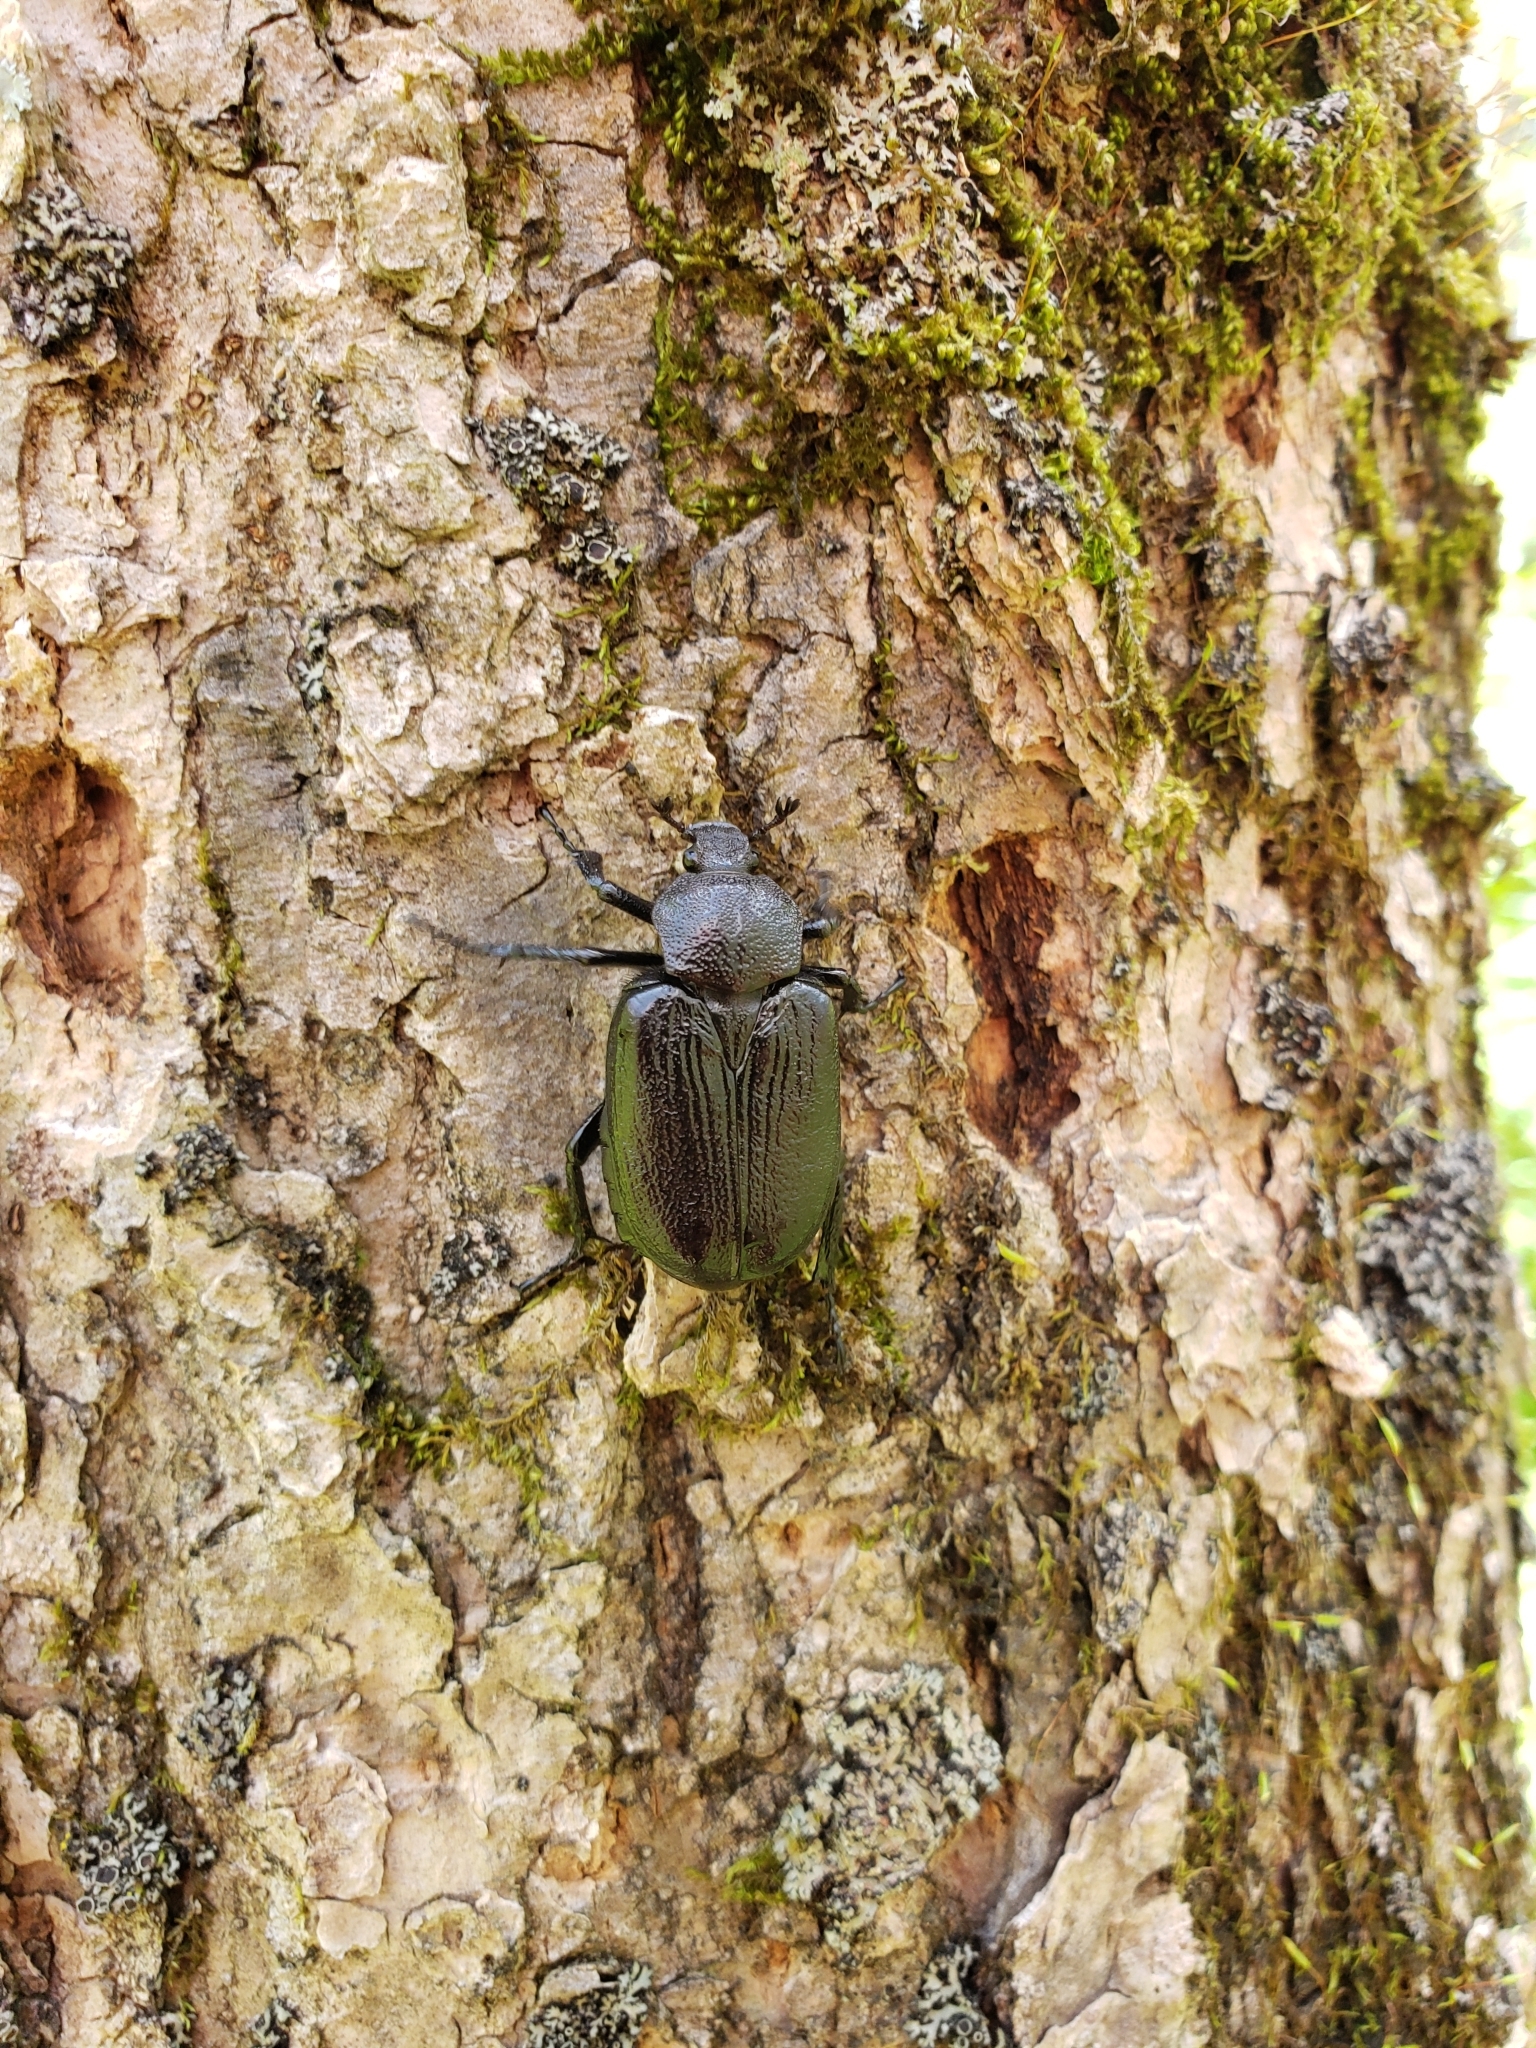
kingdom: Animalia
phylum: Arthropoda
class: Insecta
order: Coleoptera
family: Scarabaeidae
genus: Osmoderma
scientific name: Osmoderma scabra
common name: Rough hermit beetle
